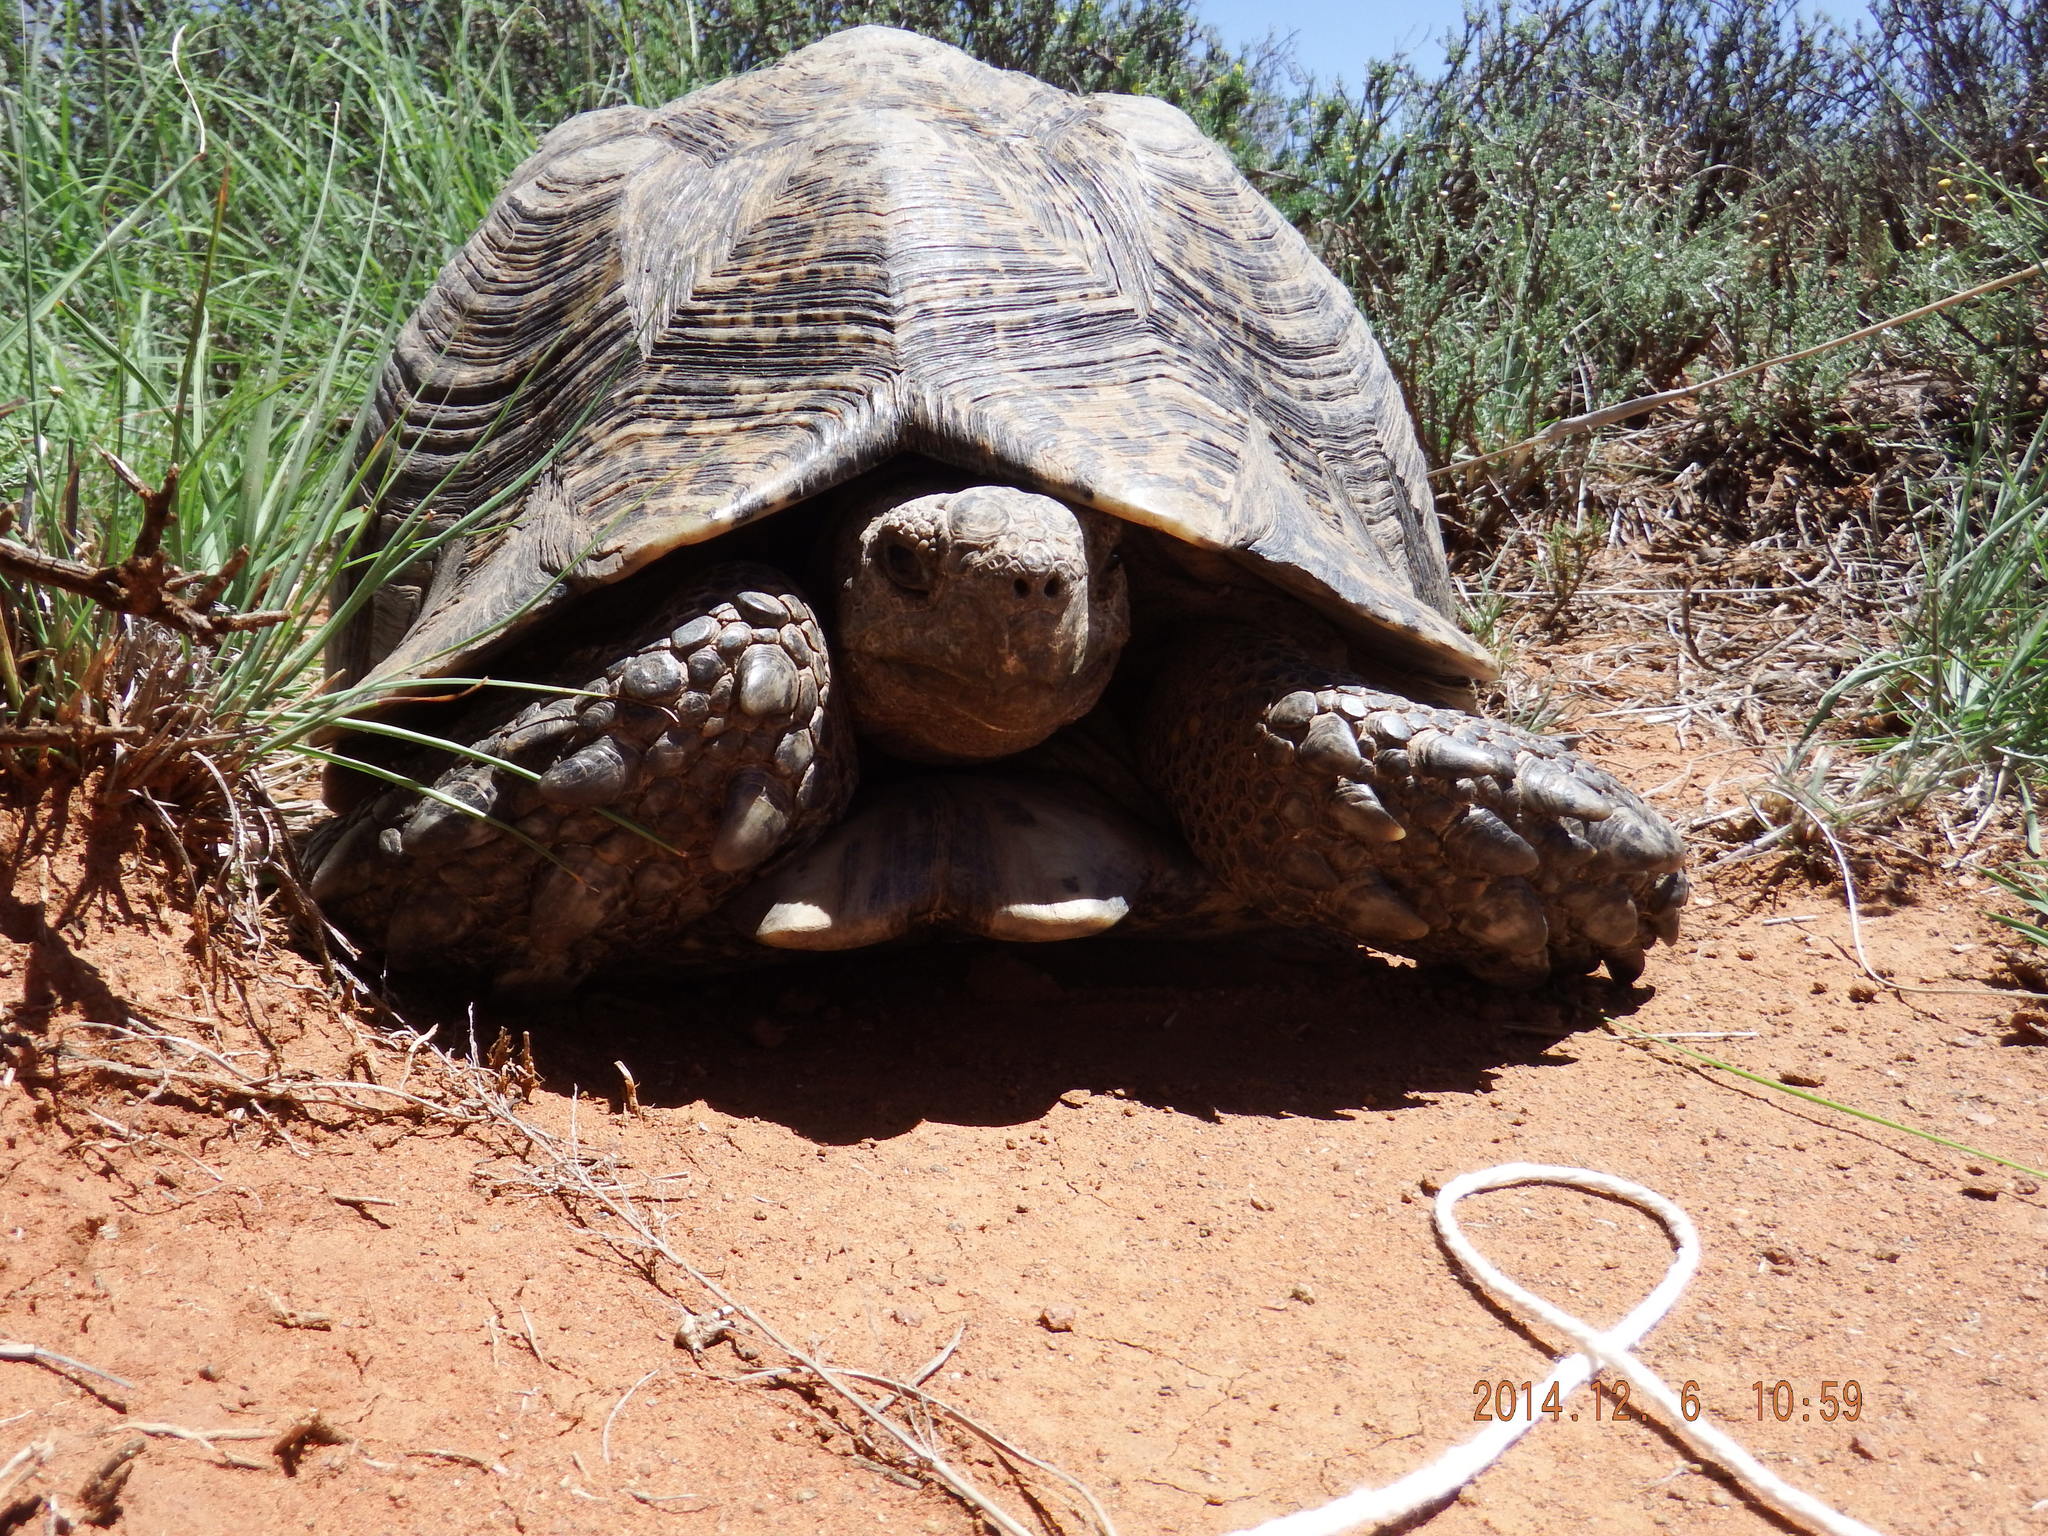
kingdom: Animalia
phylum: Chordata
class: Testudines
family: Testudinidae
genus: Stigmochelys
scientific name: Stigmochelys pardalis
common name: Leopard tortoise
